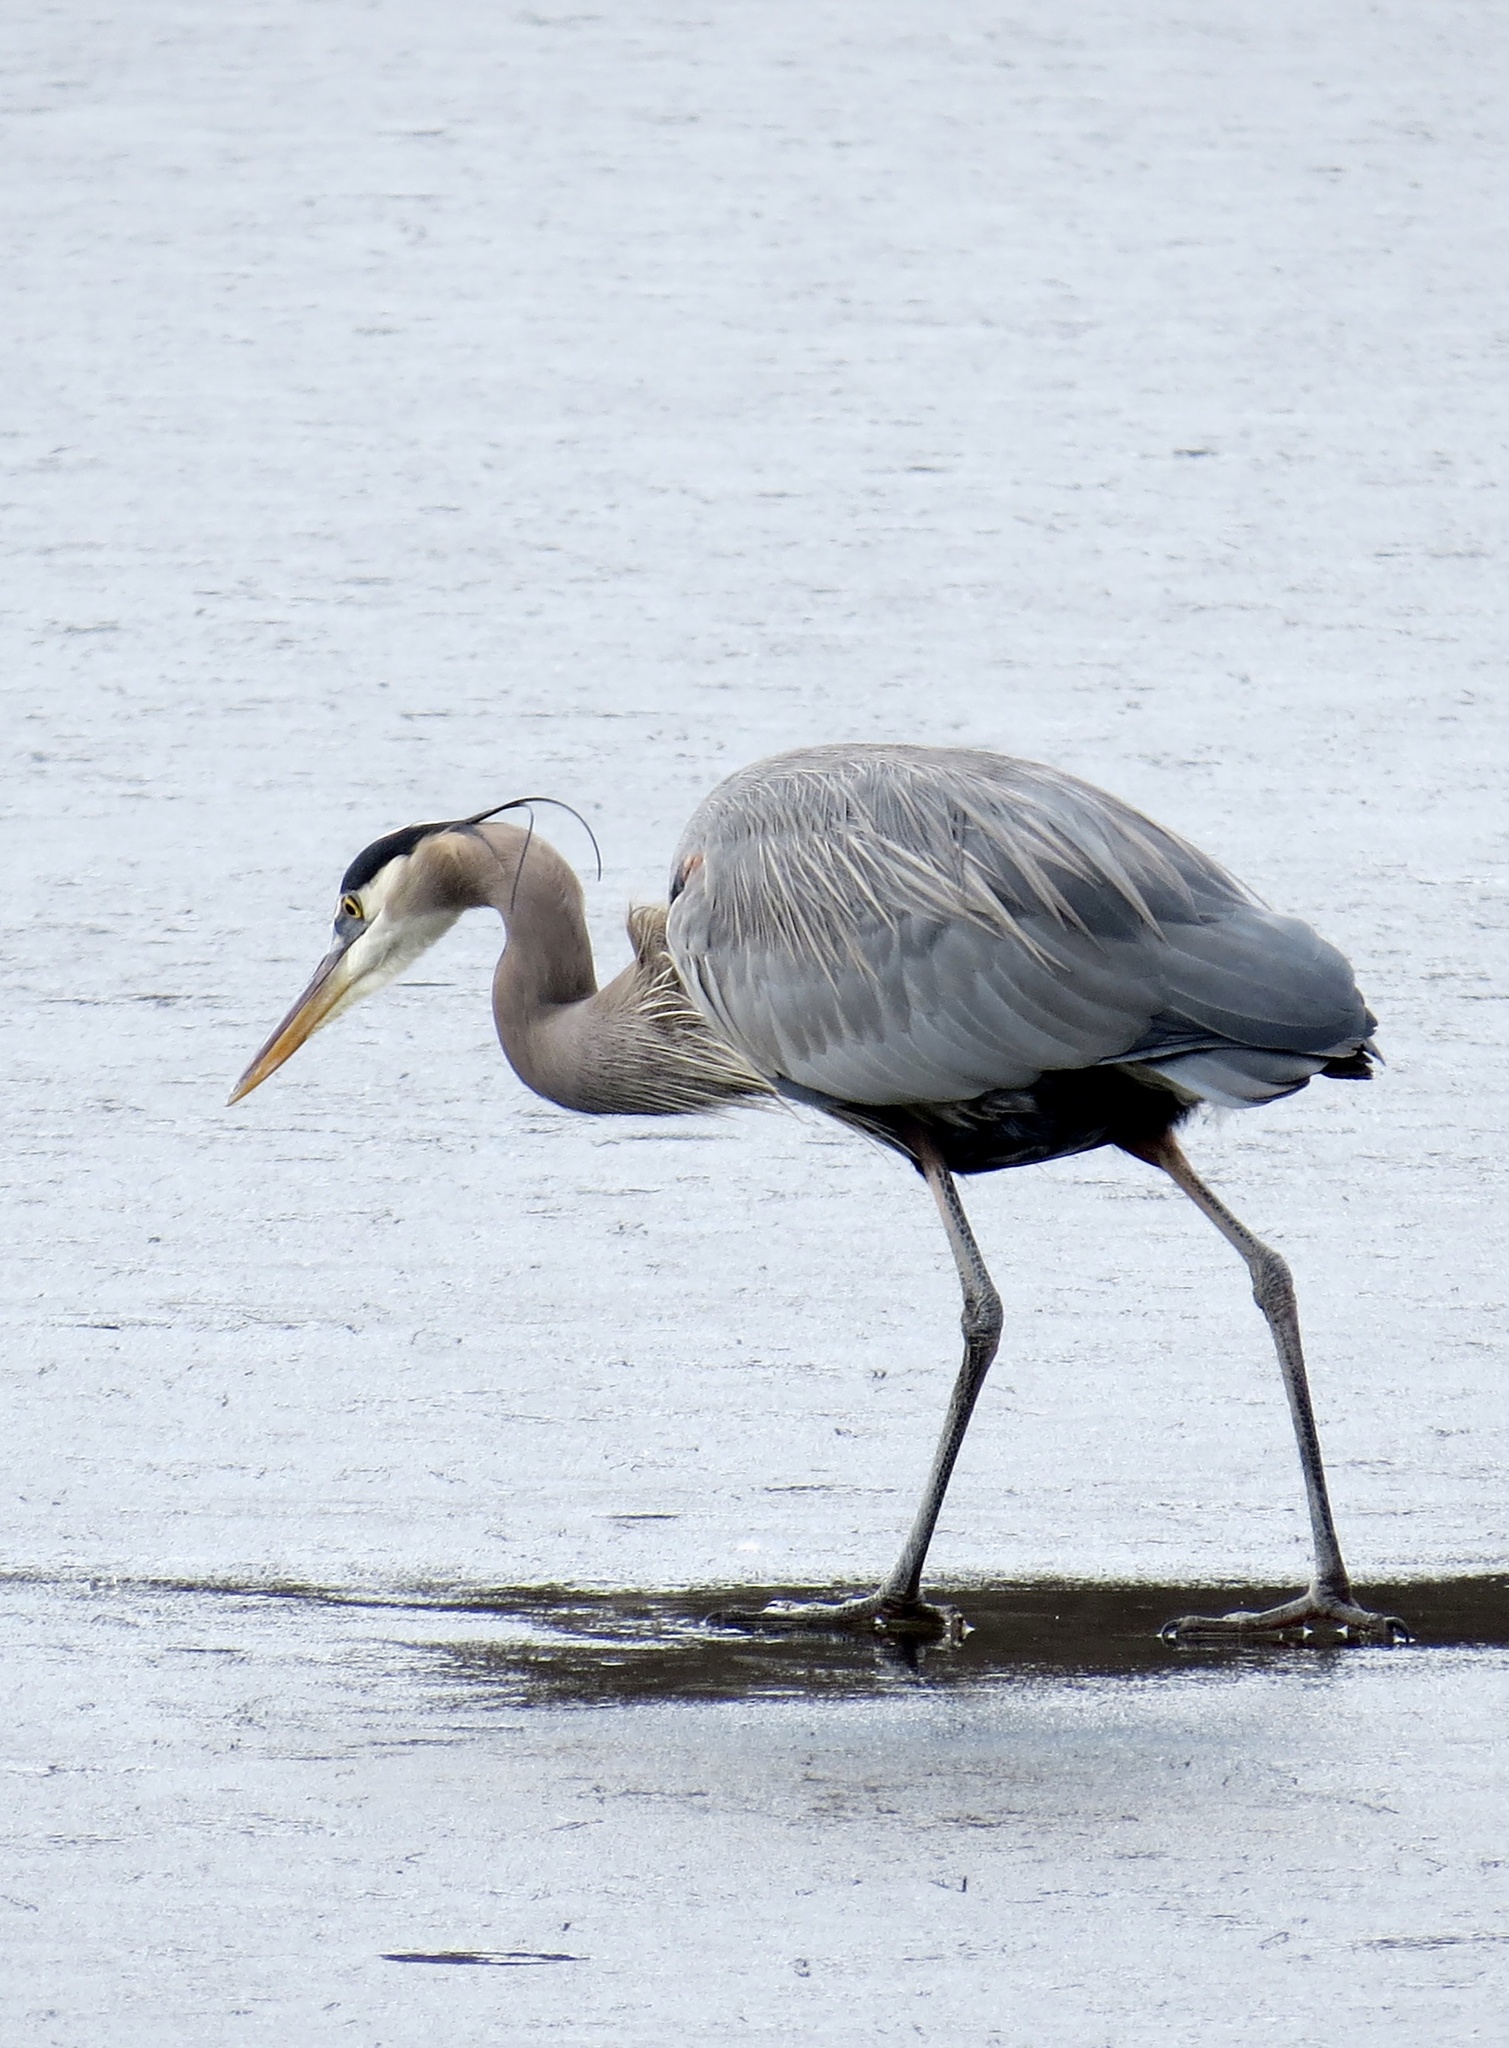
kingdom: Animalia
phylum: Chordata
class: Aves
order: Pelecaniformes
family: Ardeidae
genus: Ardea
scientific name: Ardea herodias
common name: Great blue heron
